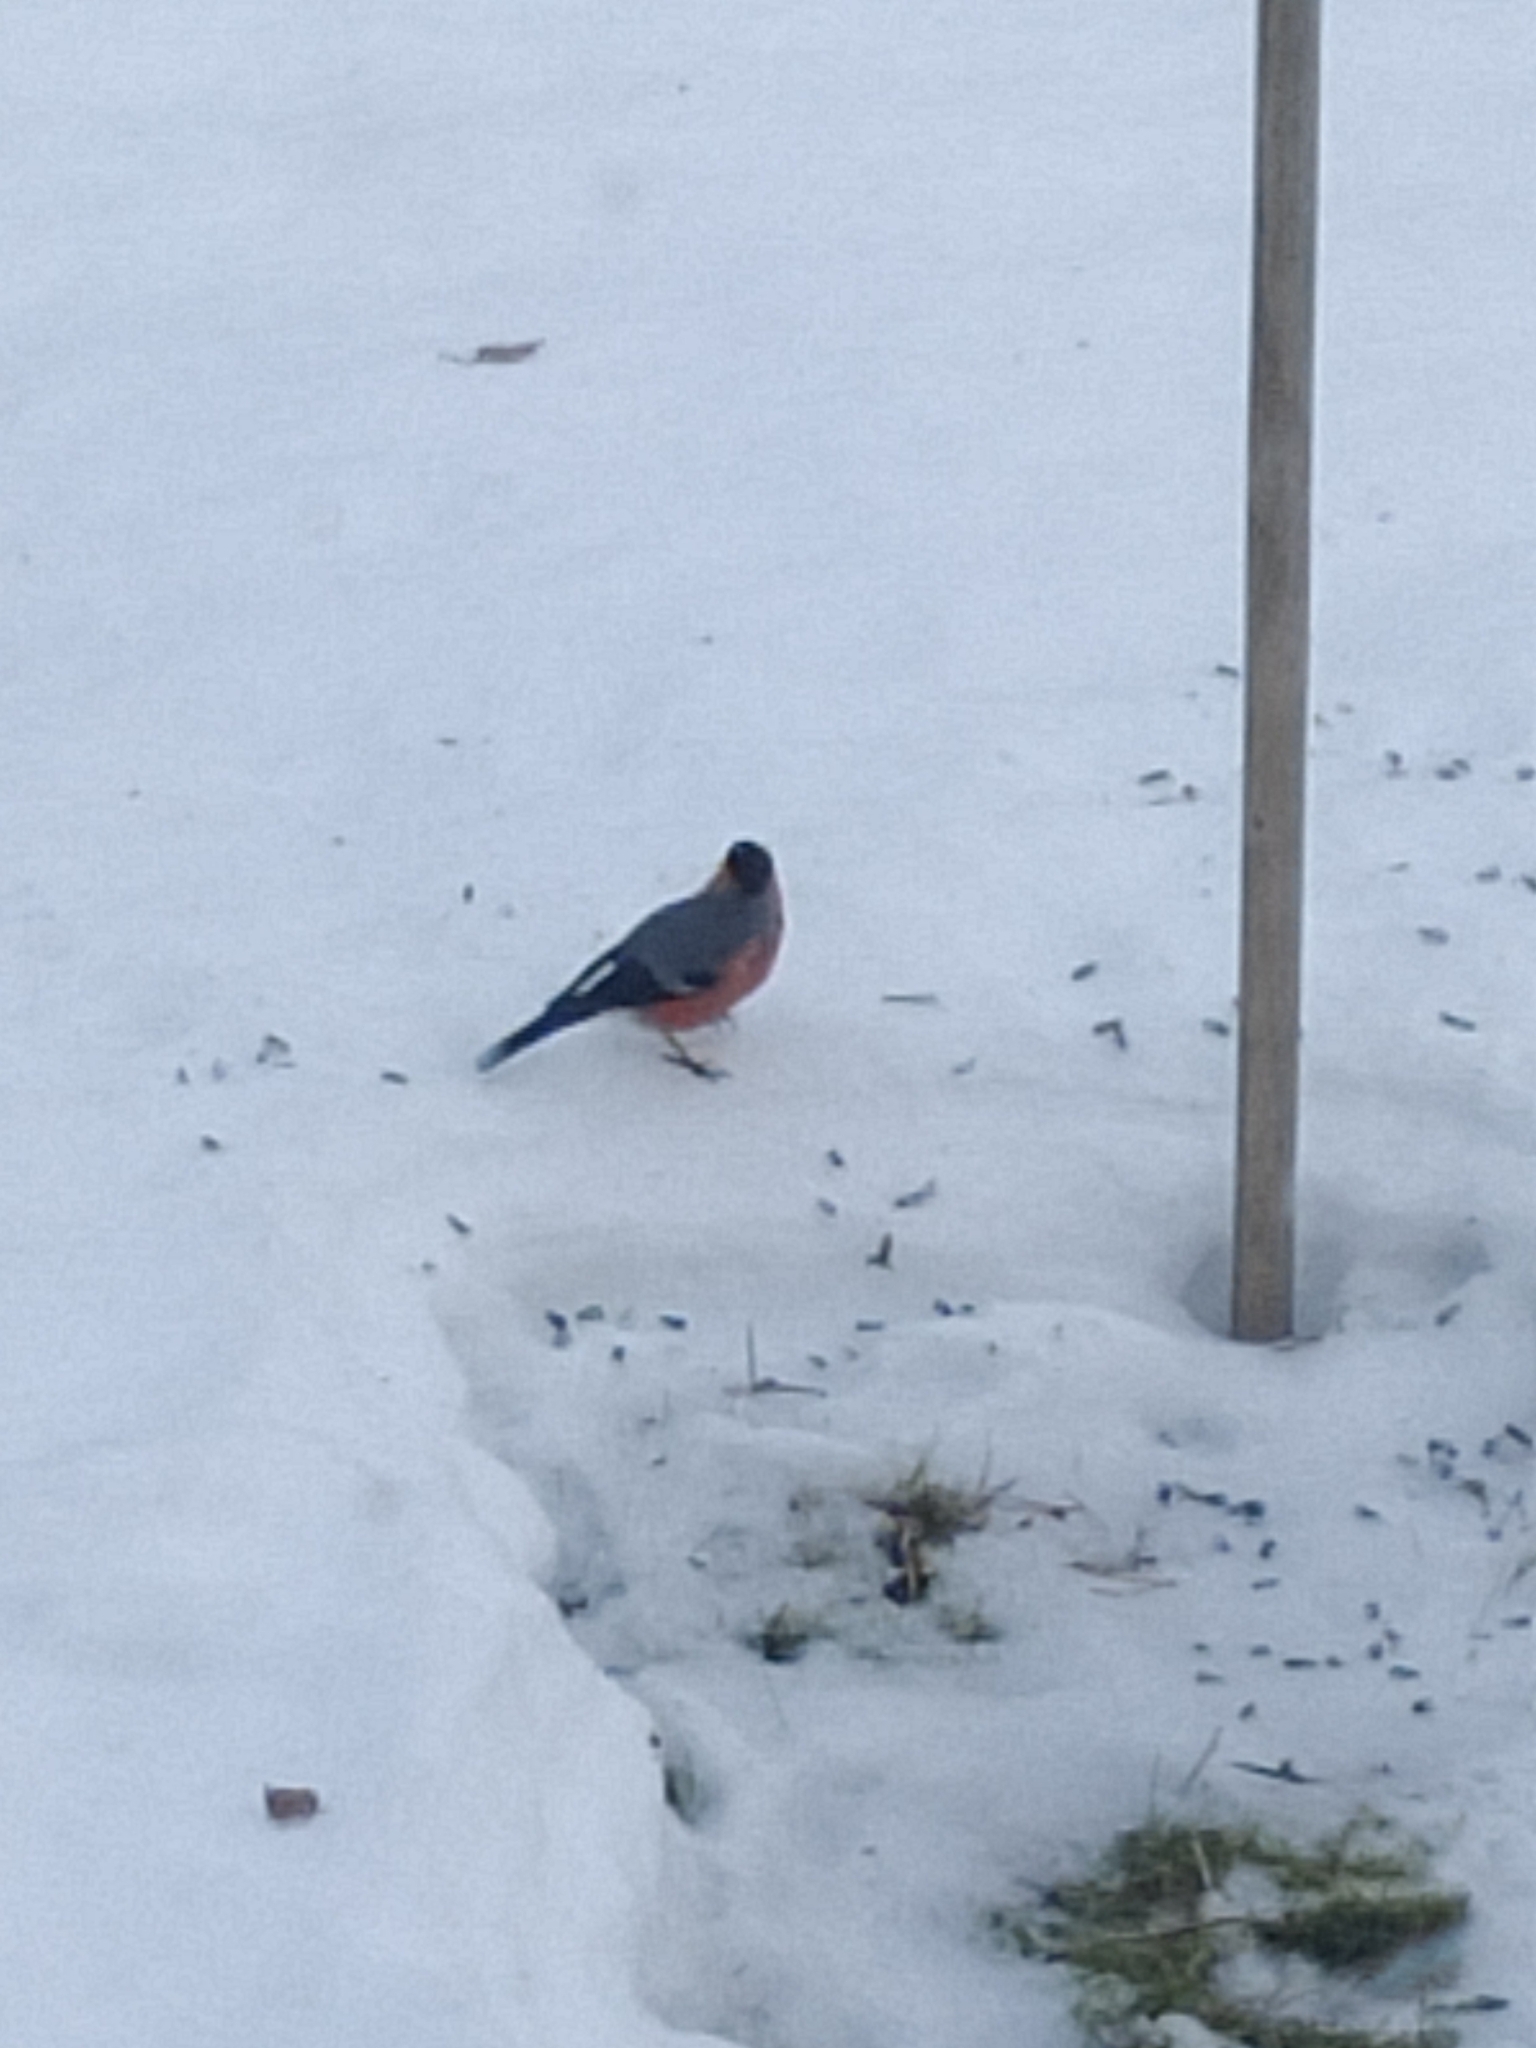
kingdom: Animalia
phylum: Chordata
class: Aves
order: Passeriformes
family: Fringillidae
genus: Pyrrhula
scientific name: Pyrrhula pyrrhula
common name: Eurasian bullfinch
